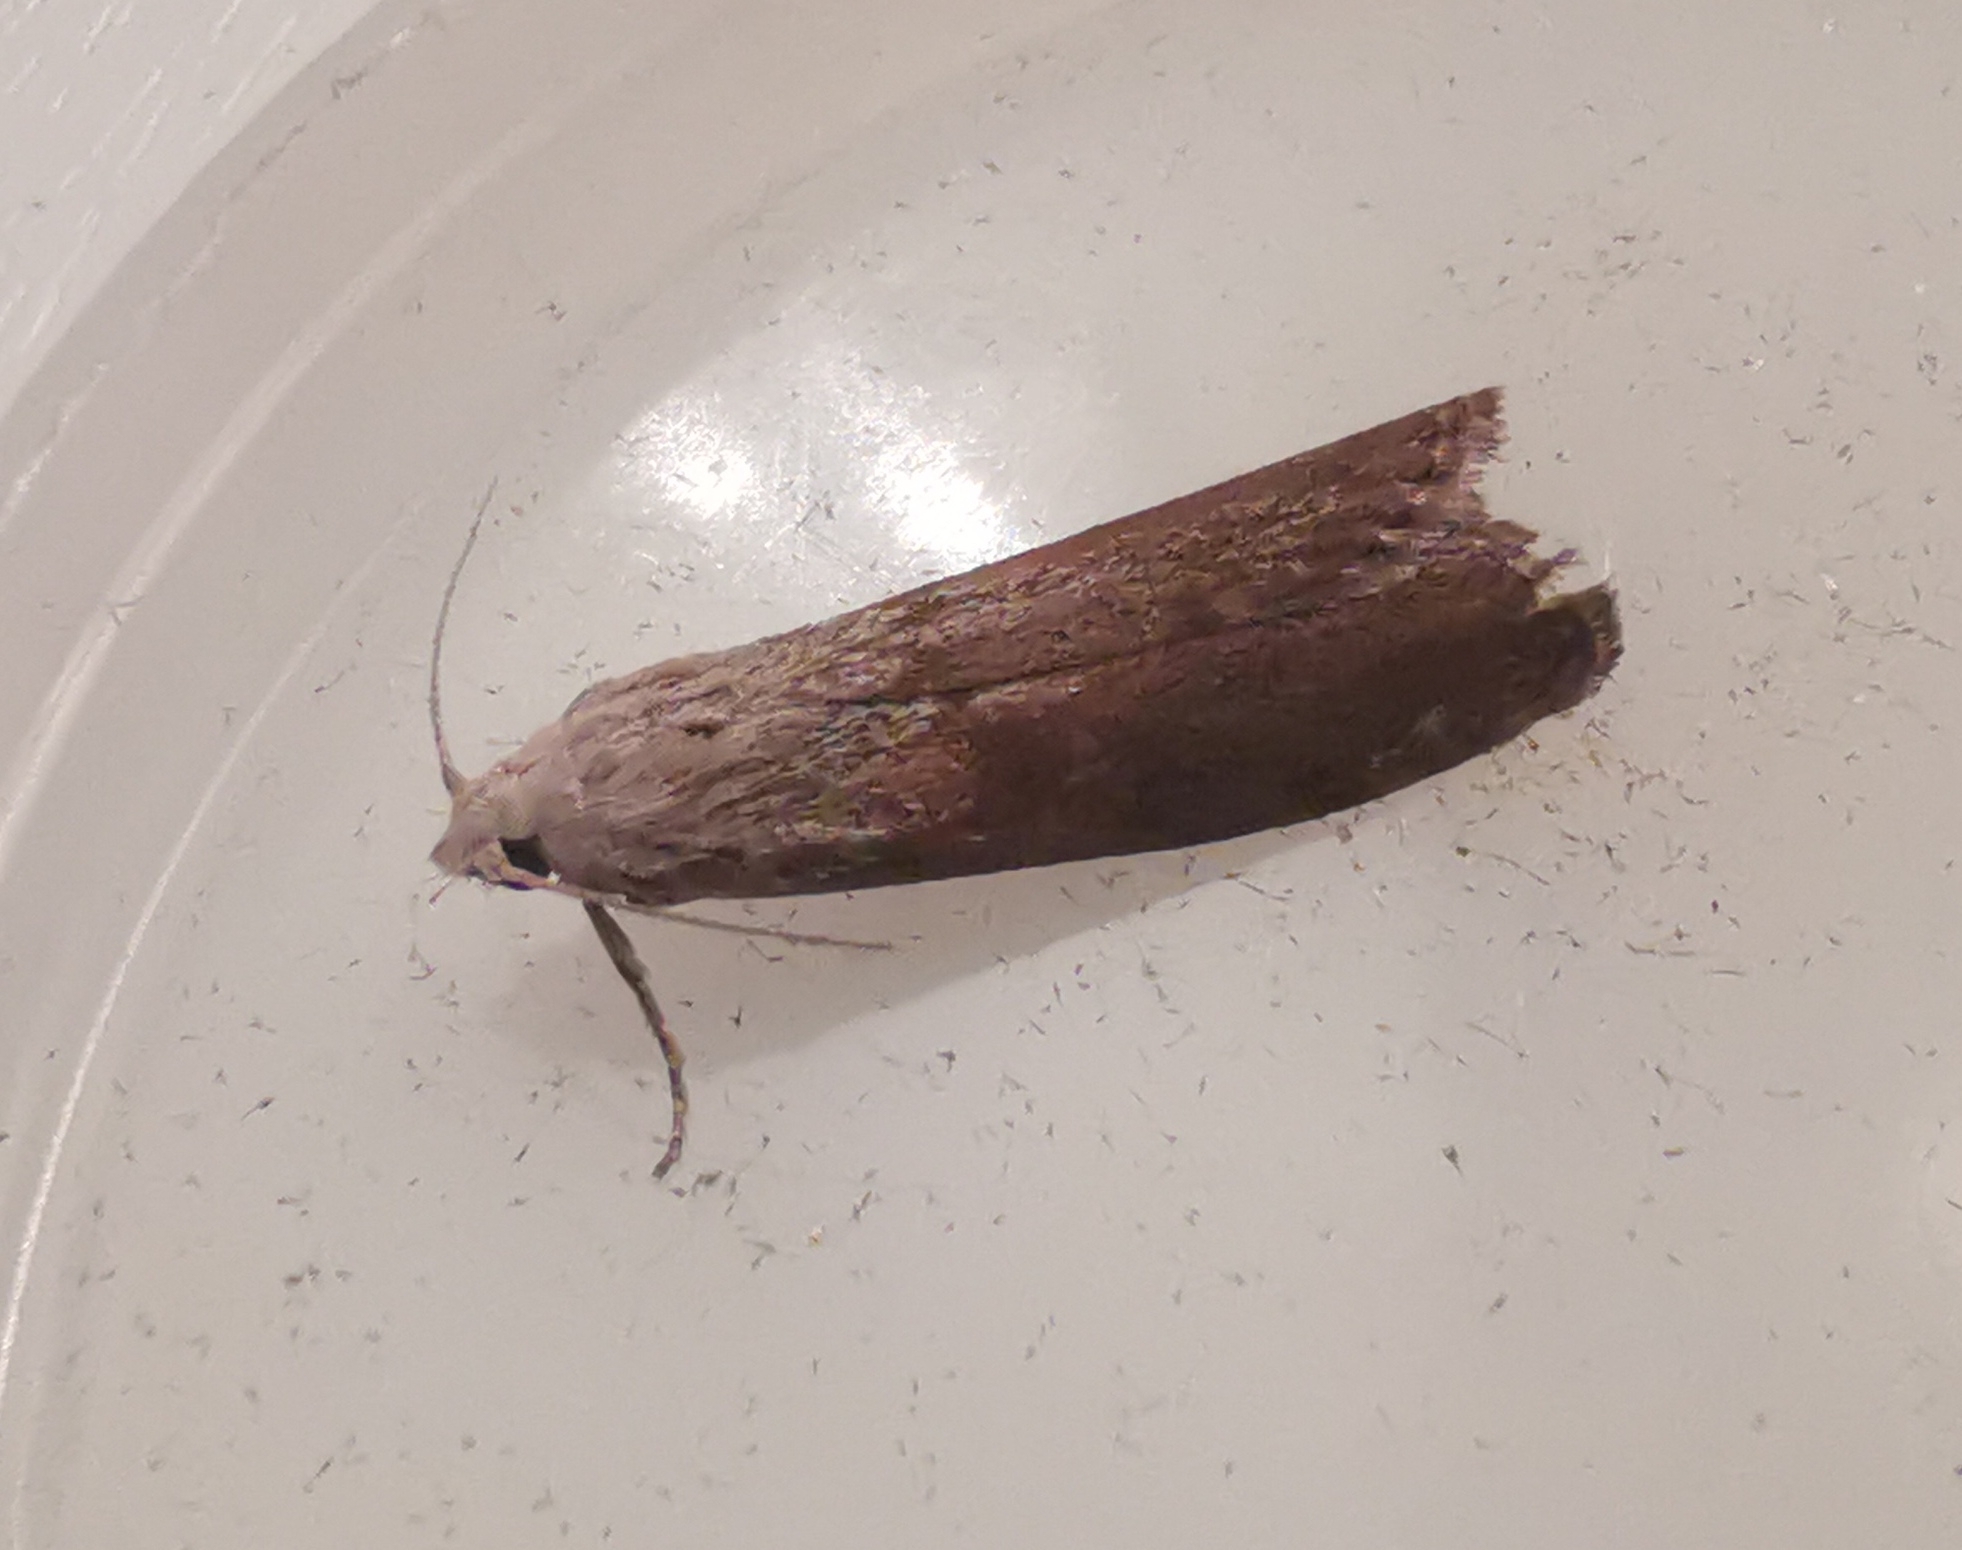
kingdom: Animalia
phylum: Arthropoda
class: Insecta
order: Lepidoptera
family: Pyralidae
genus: Aphomia
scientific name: Aphomia sociella
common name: Bee moth
